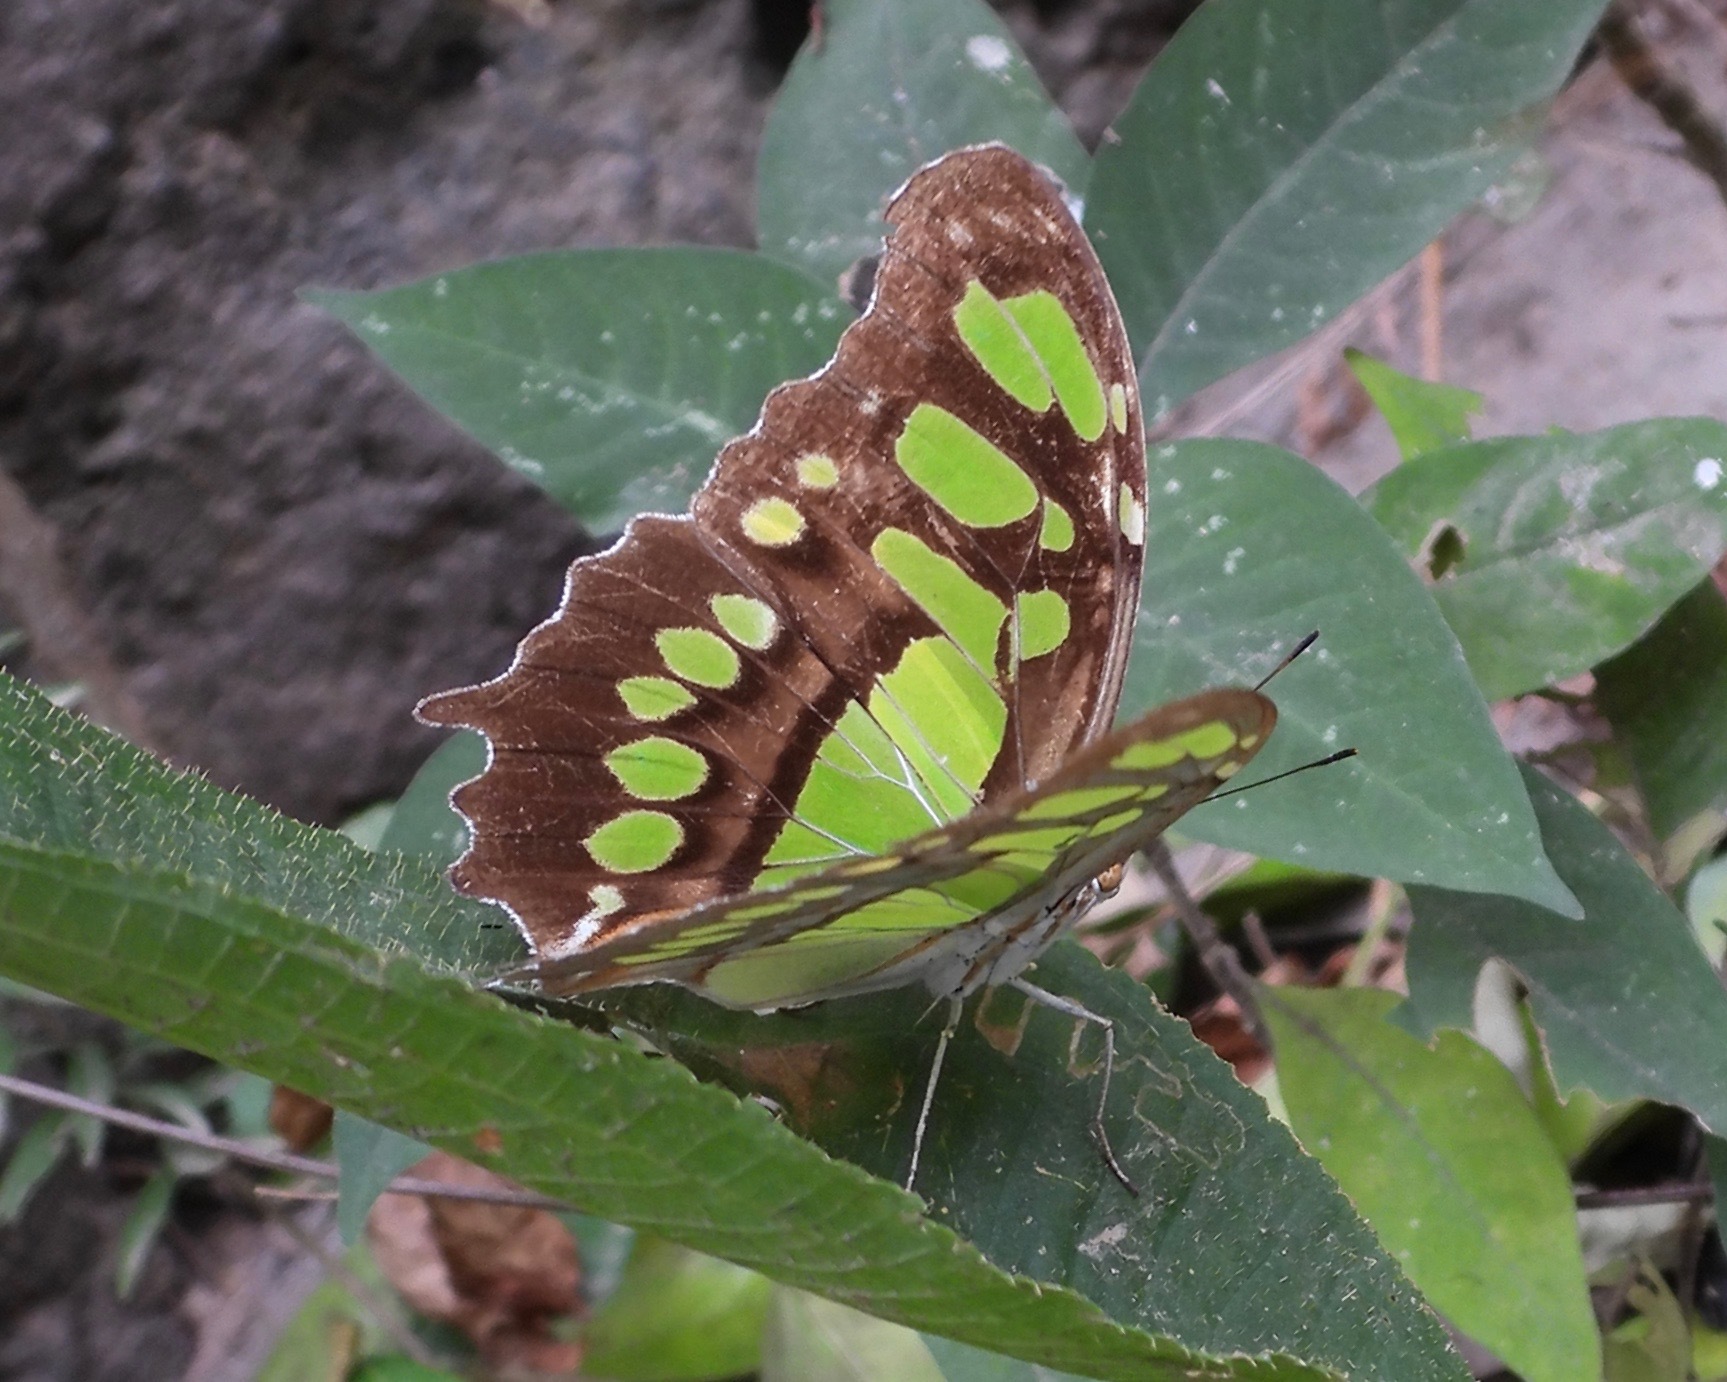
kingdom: Animalia
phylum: Arthropoda
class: Insecta
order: Lepidoptera
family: Nymphalidae
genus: Siproeta
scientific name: Siproeta stelenes
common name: Malachite
